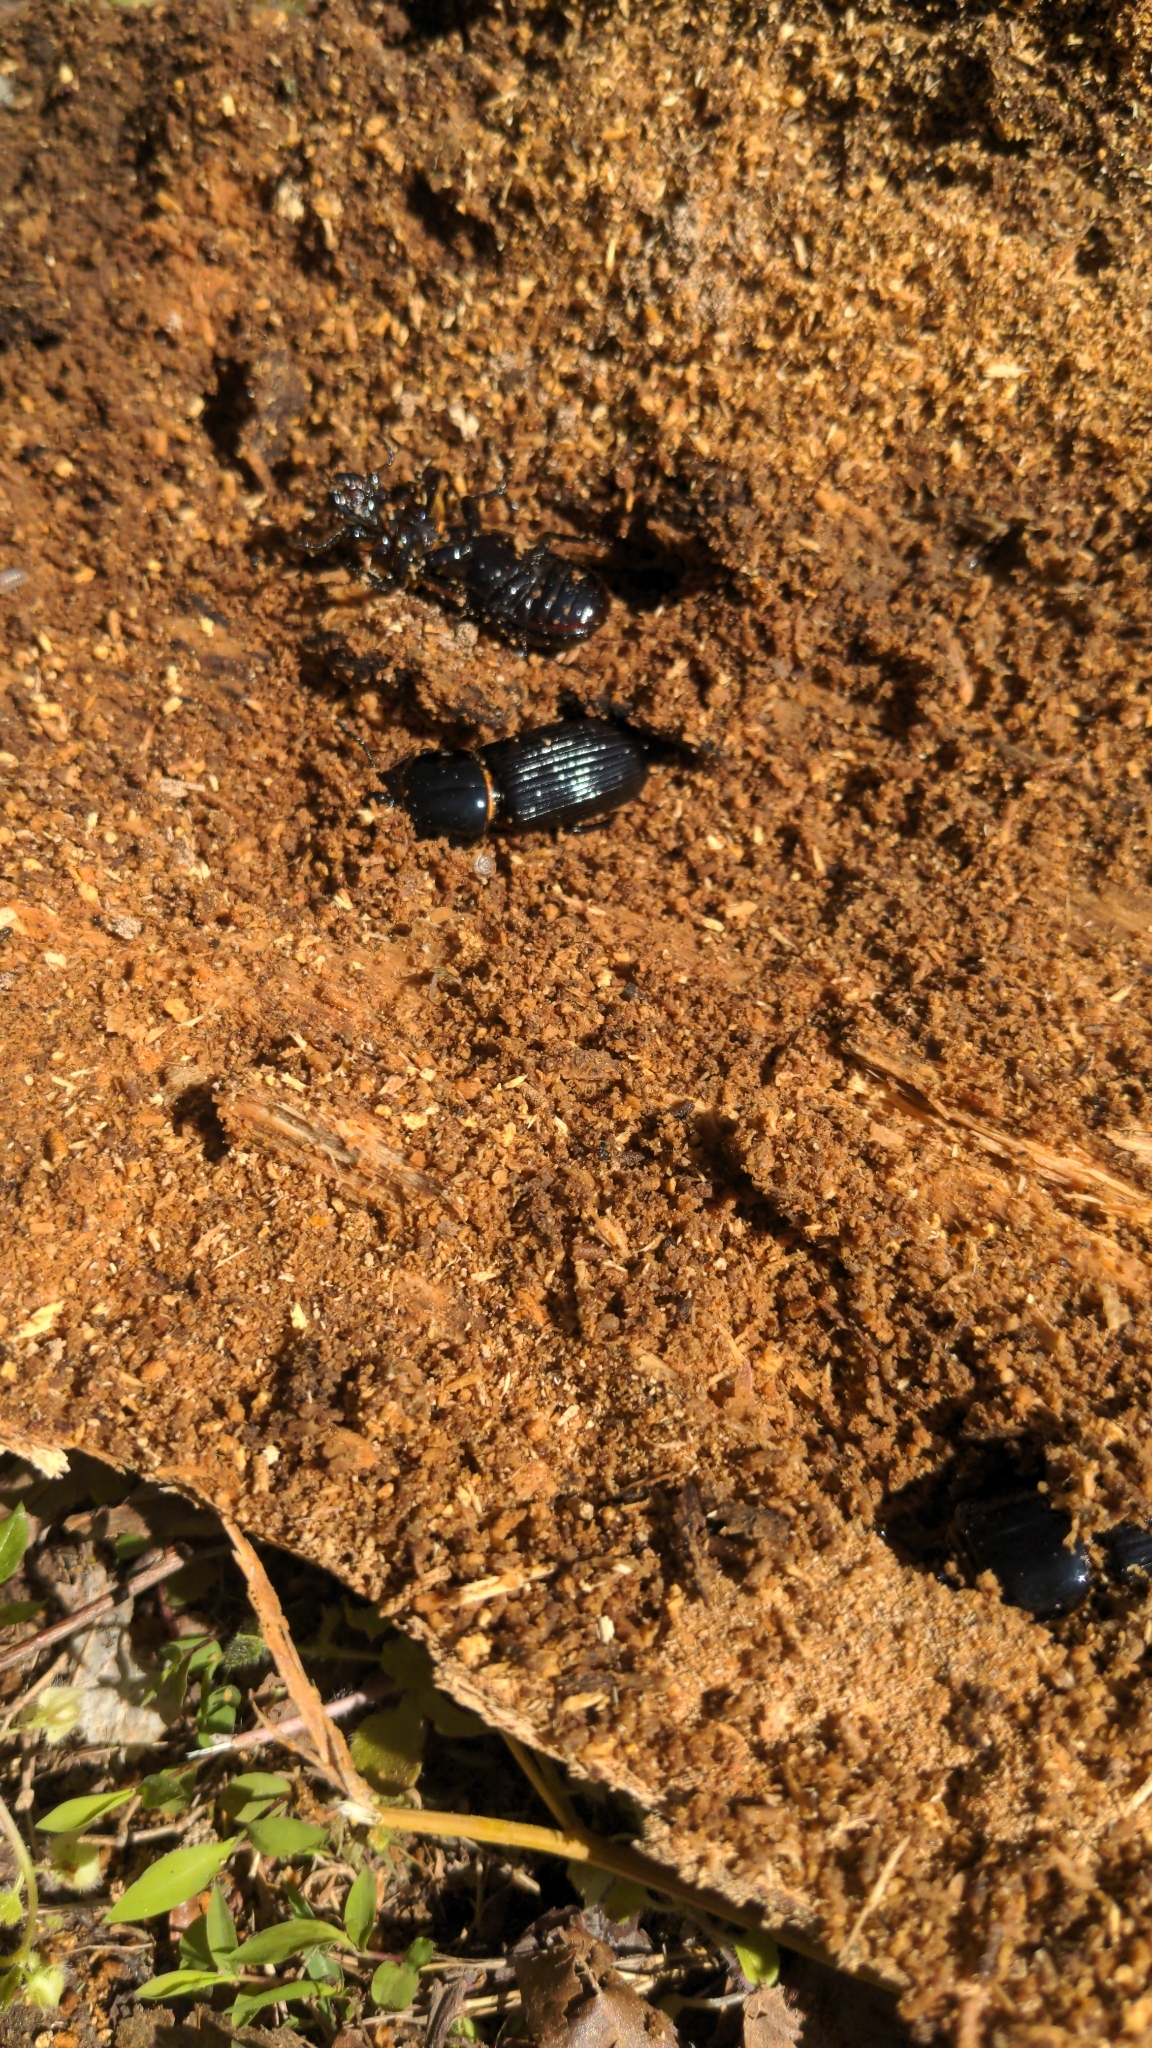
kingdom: Animalia
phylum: Arthropoda
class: Insecta
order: Coleoptera
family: Passalidae
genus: Odontotaenius
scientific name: Odontotaenius disjunctus
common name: Patent leather beetle
